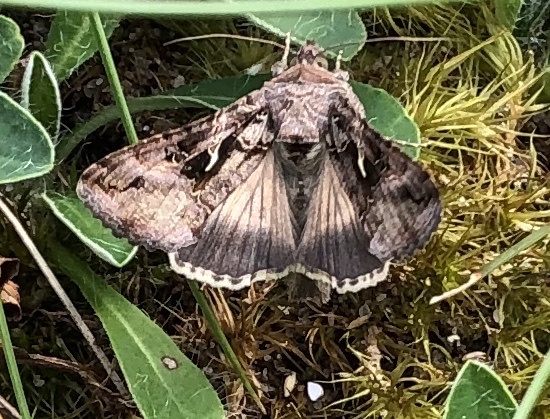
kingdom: Animalia
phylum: Arthropoda
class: Insecta
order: Lepidoptera
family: Noctuidae
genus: Autographa
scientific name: Autographa gamma
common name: Silver y
